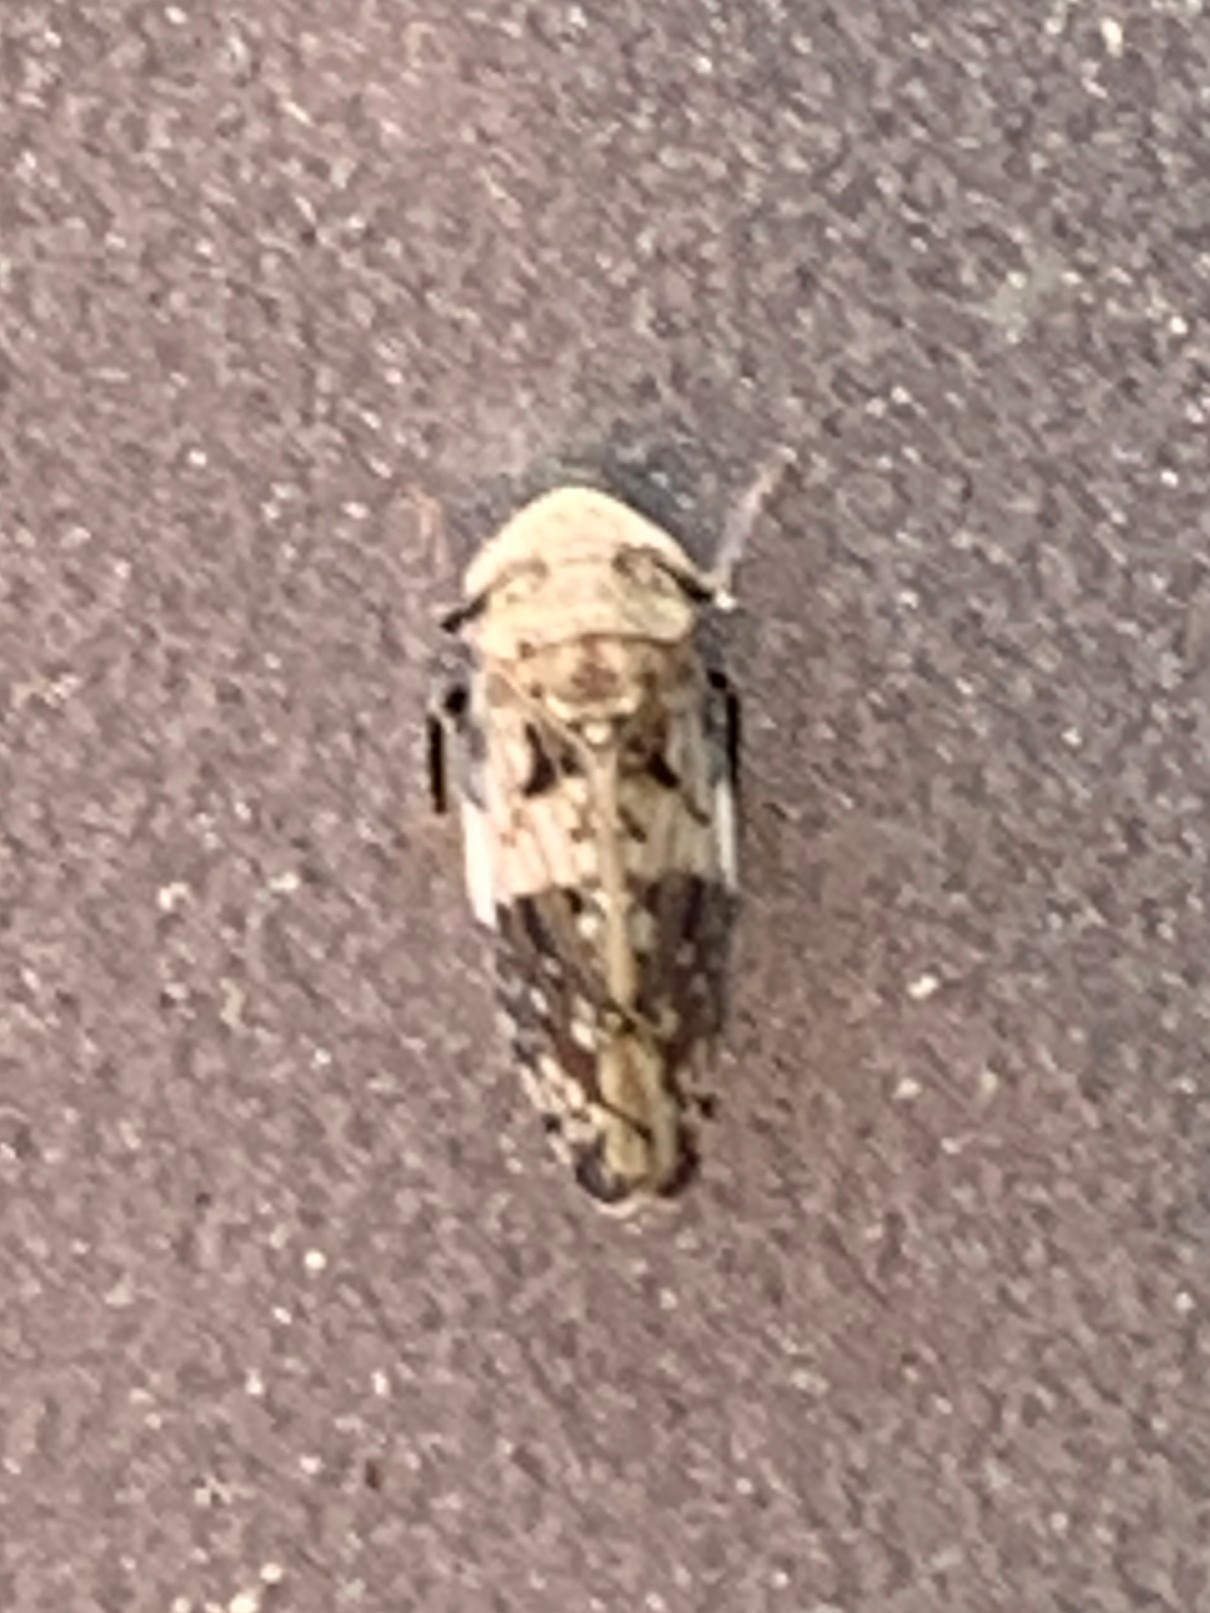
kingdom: Animalia
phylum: Arthropoda
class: Insecta
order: Hemiptera
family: Cicadellidae
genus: Menosoma
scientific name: Menosoma cinctum
